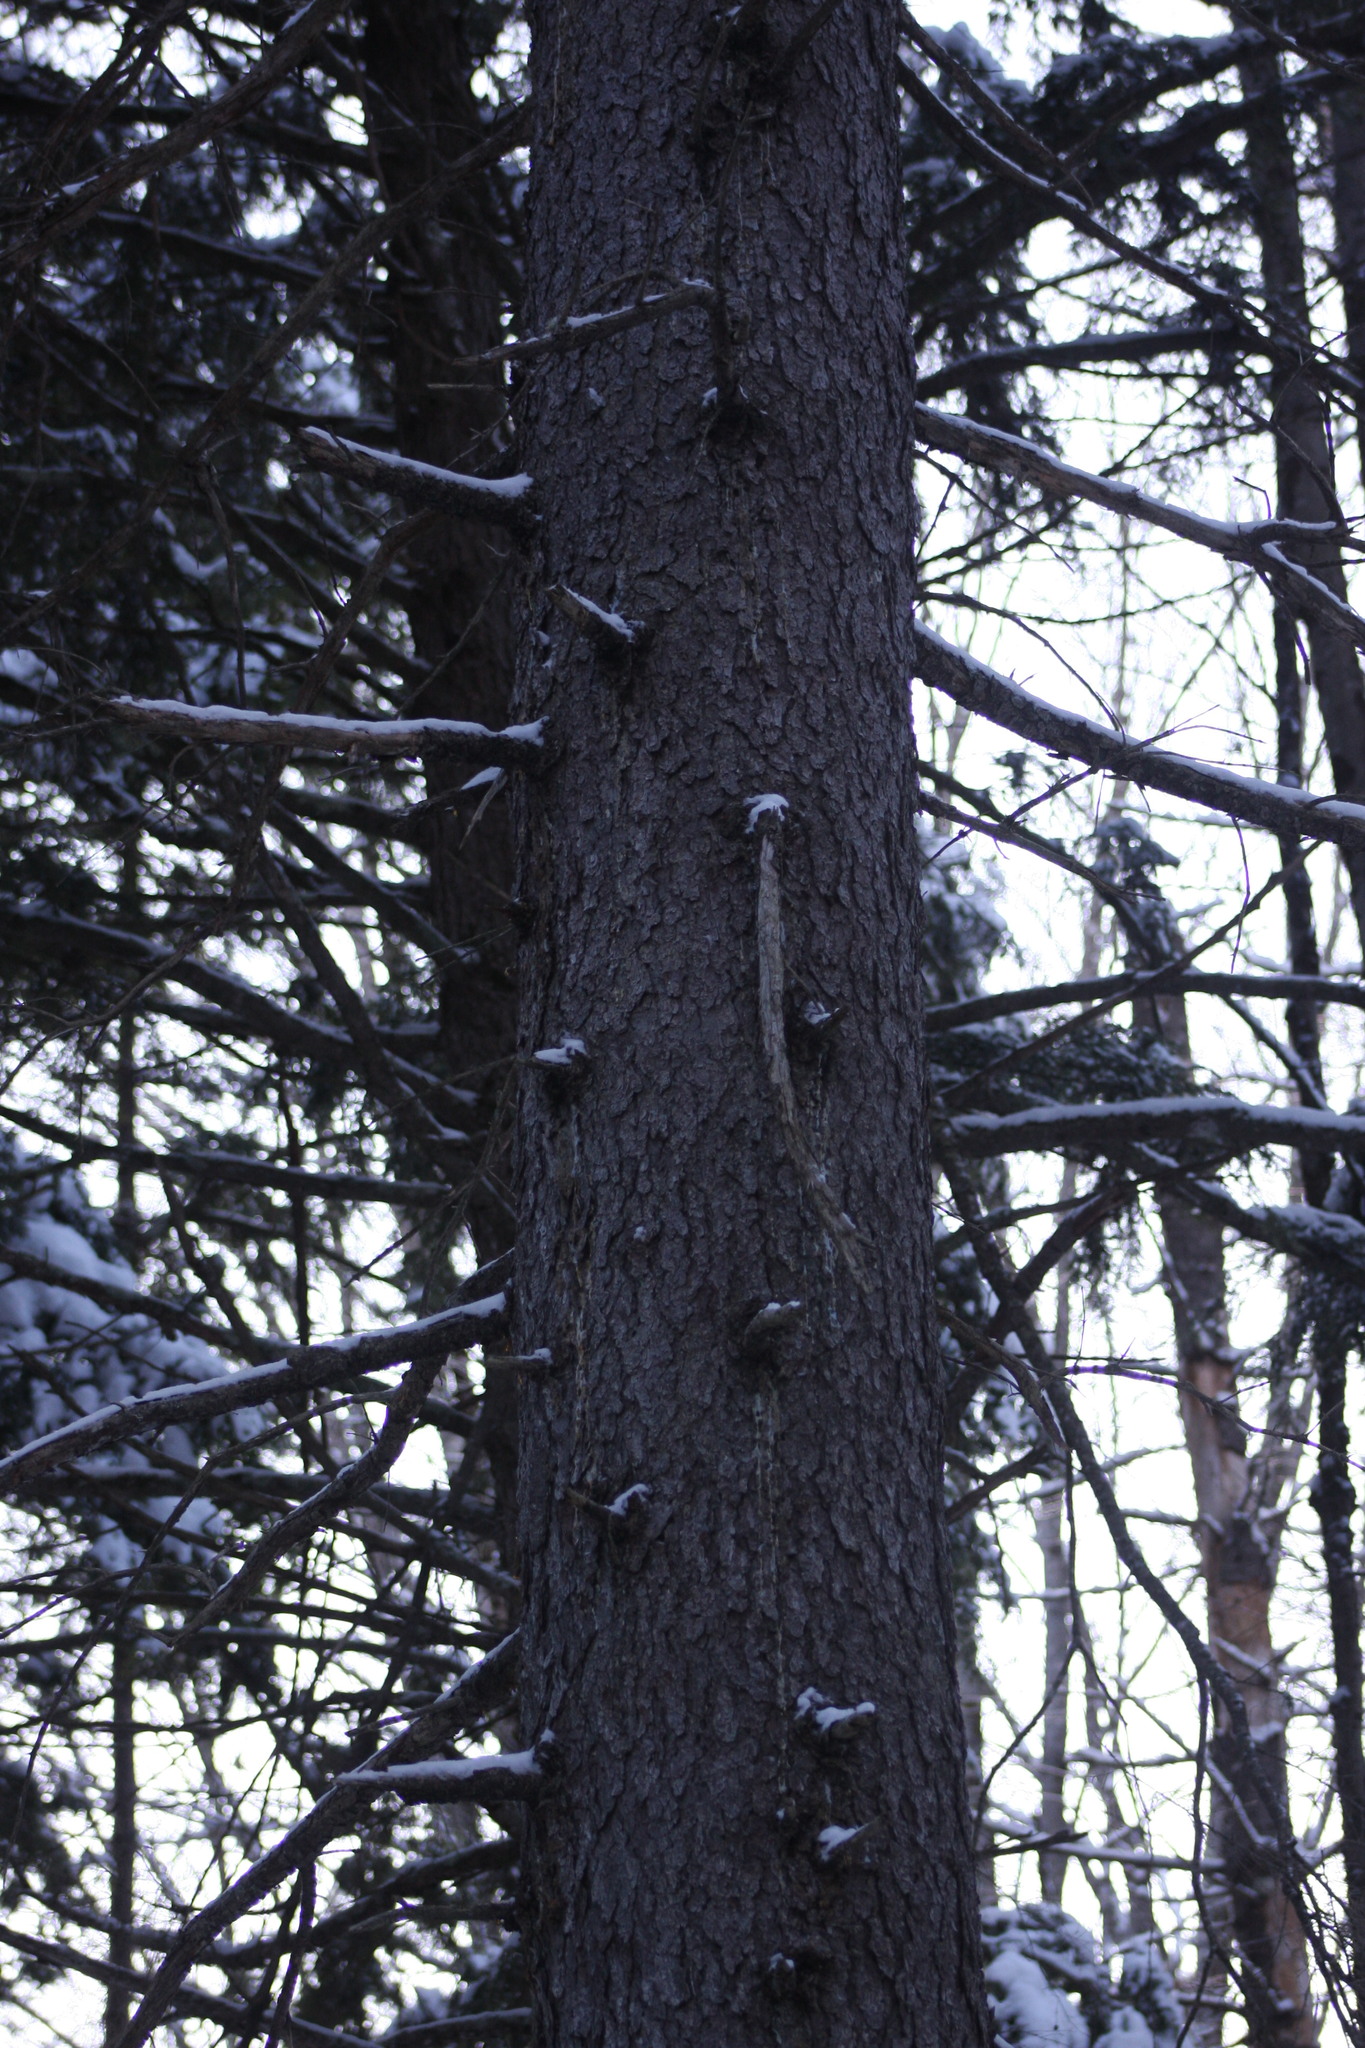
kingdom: Plantae
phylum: Tracheophyta
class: Pinopsida
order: Pinales
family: Pinaceae
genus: Picea
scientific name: Picea rubens
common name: Red spruce
